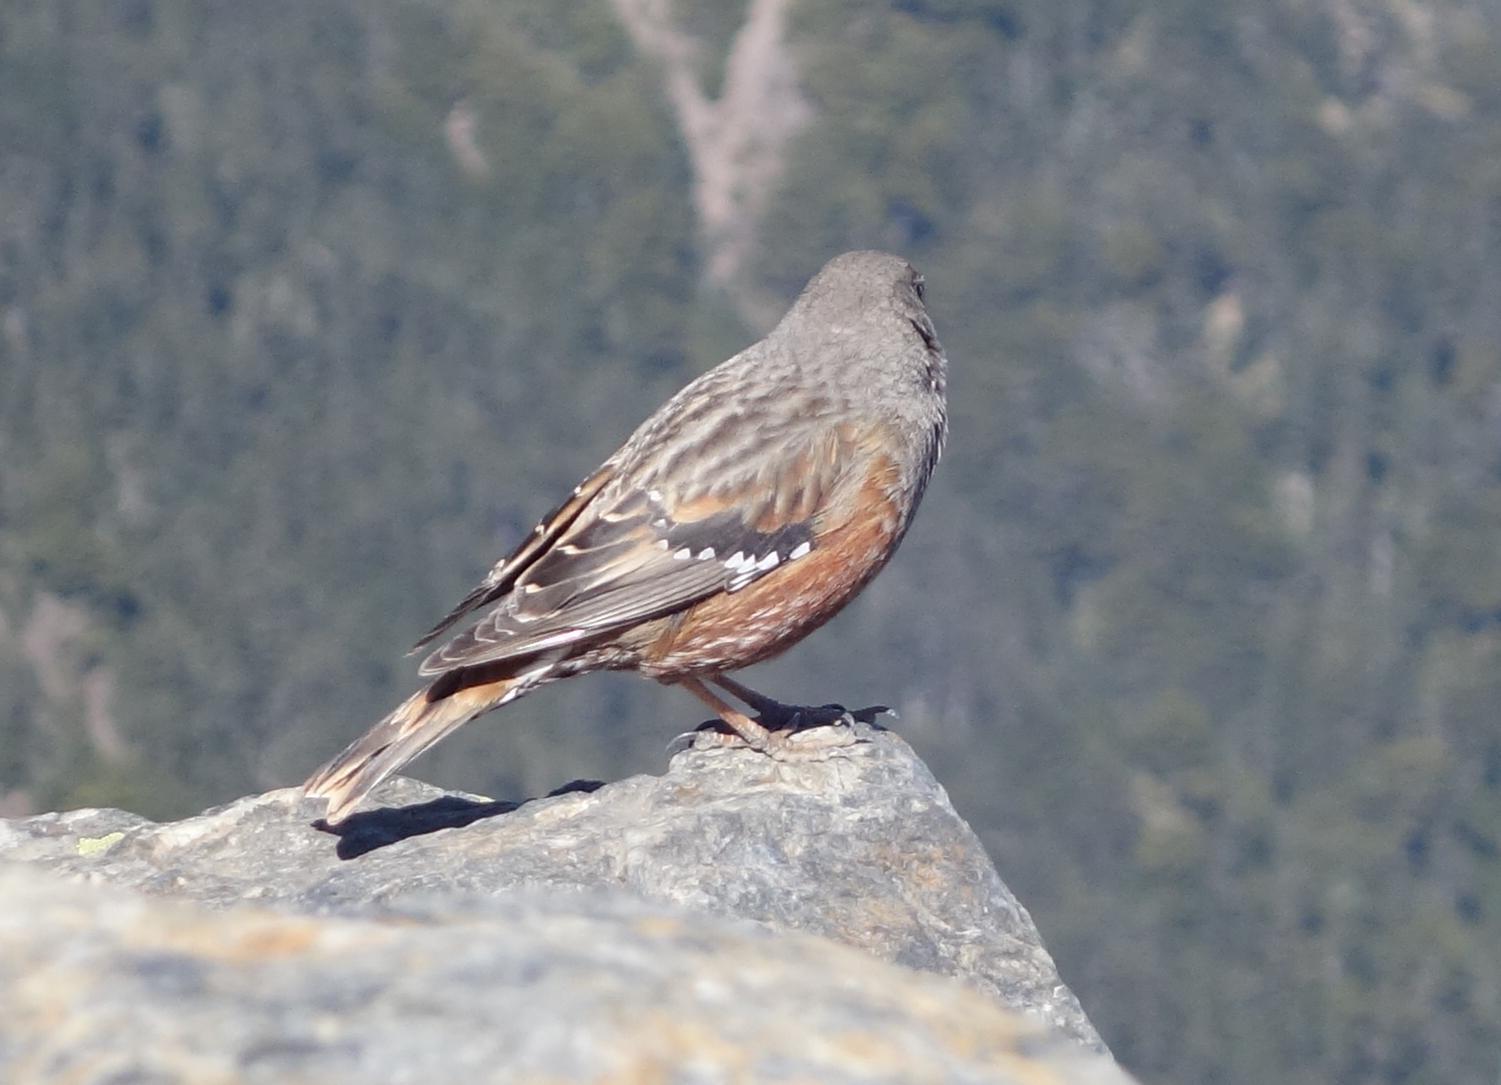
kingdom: Animalia
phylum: Chordata
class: Aves
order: Passeriformes
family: Prunellidae
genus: Prunella
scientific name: Prunella collaris
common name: Alpine accentor
